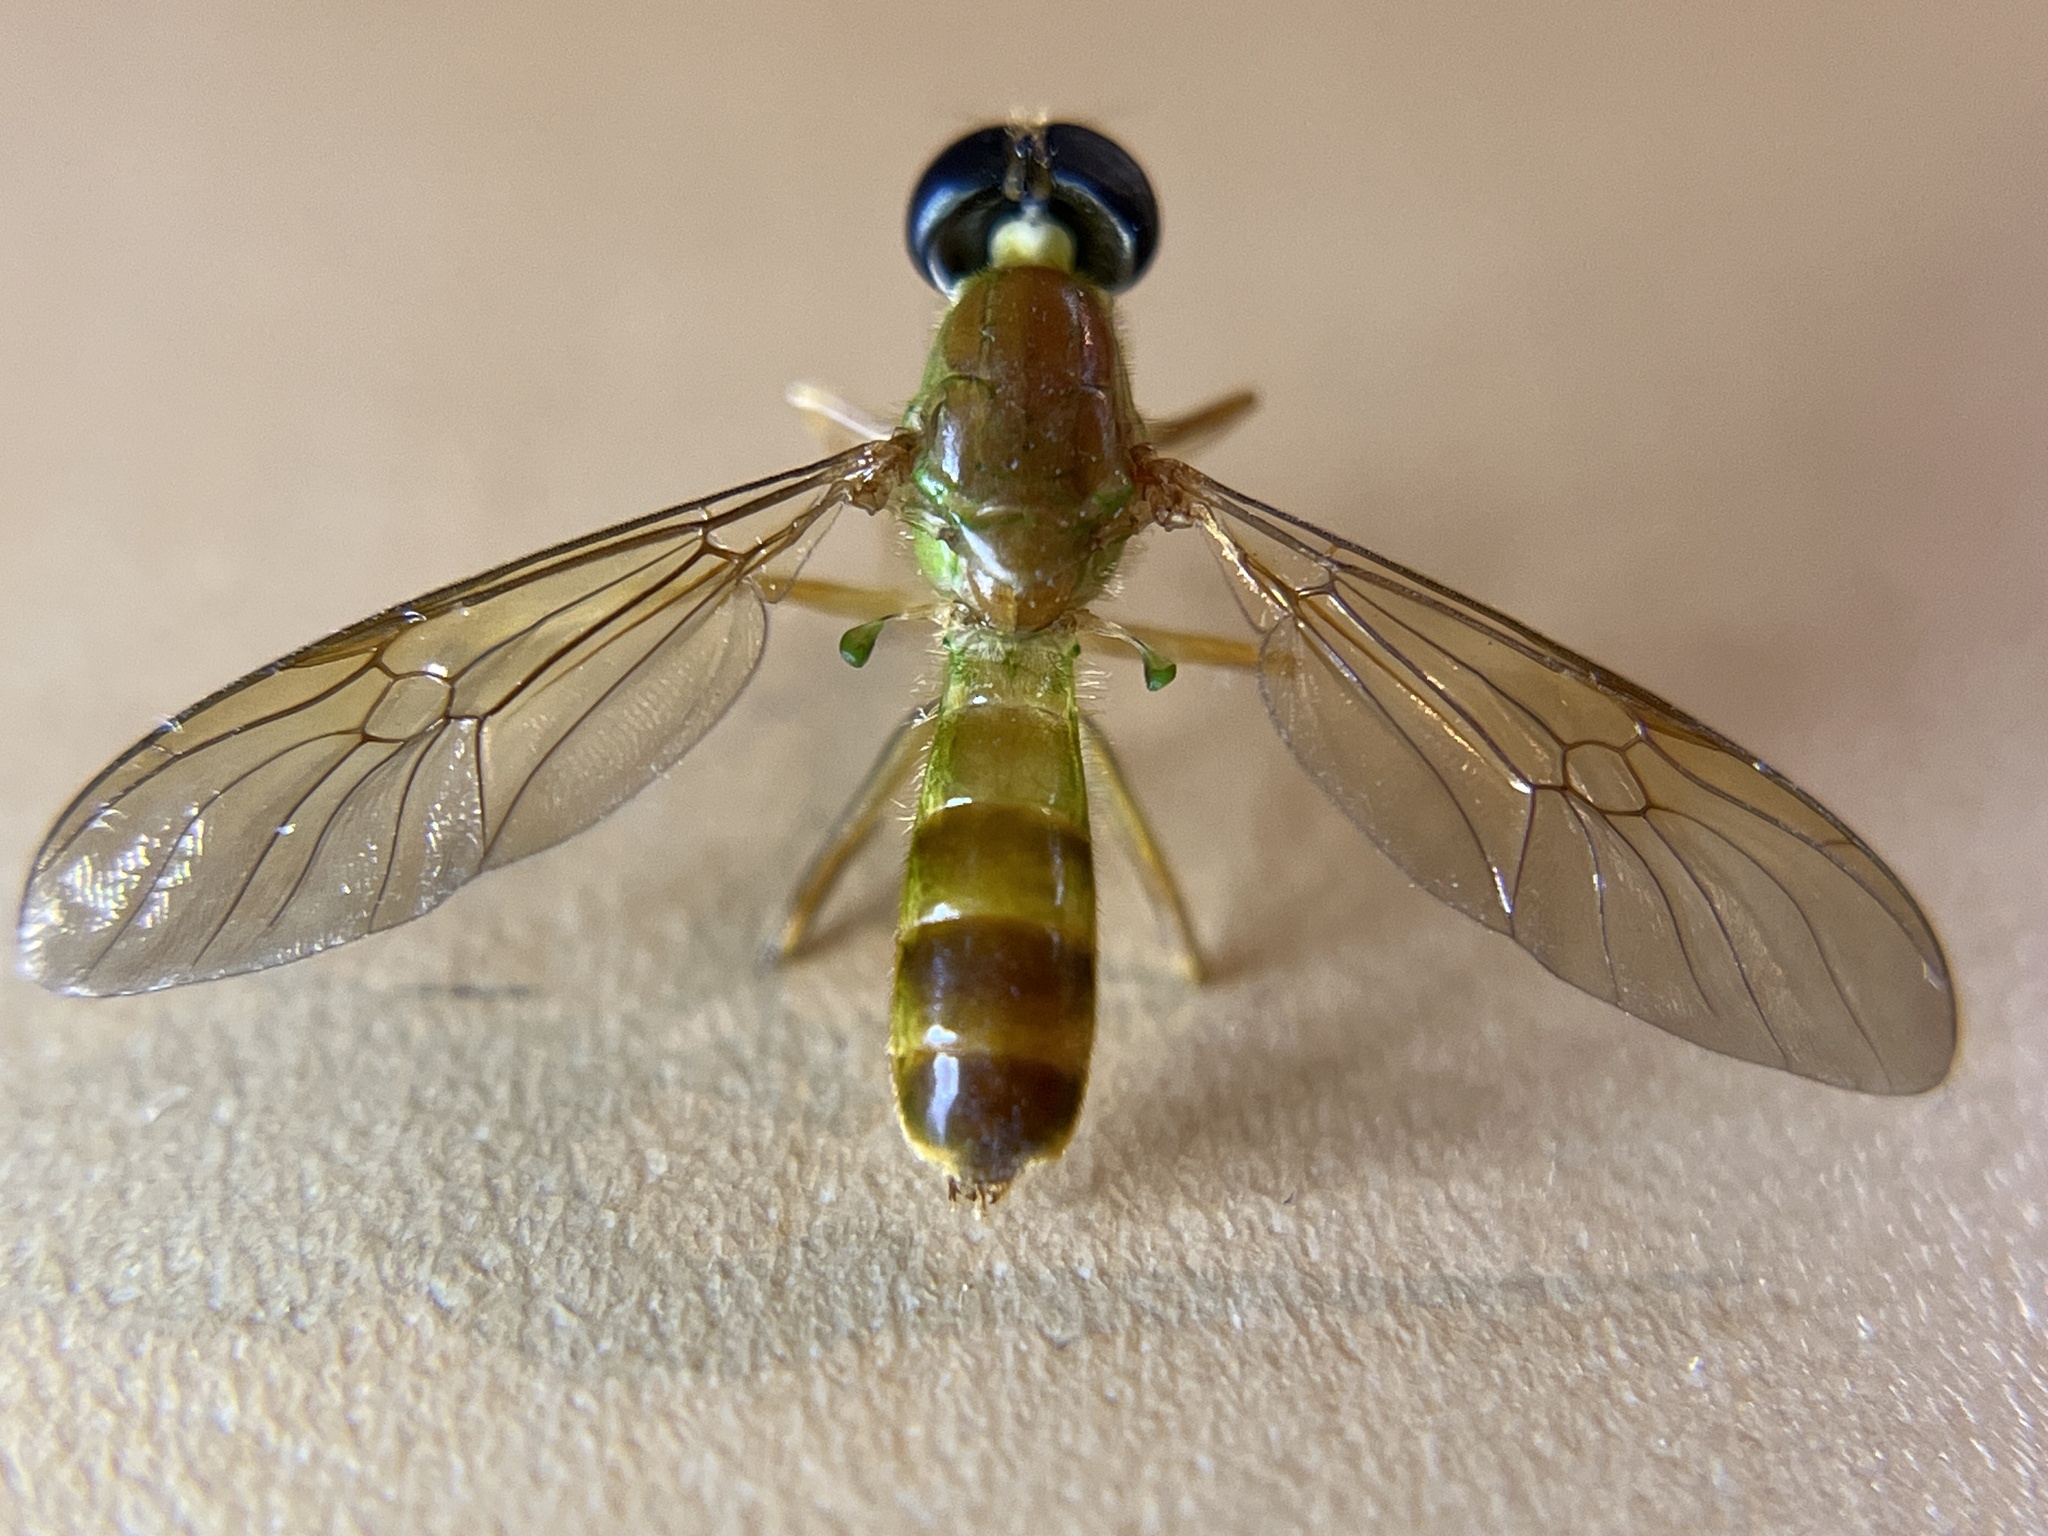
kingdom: Animalia
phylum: Arthropoda
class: Insecta
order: Diptera
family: Stratiomyidae
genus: Ptecticus
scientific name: Ptecticus trivittatus
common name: Compost fly
